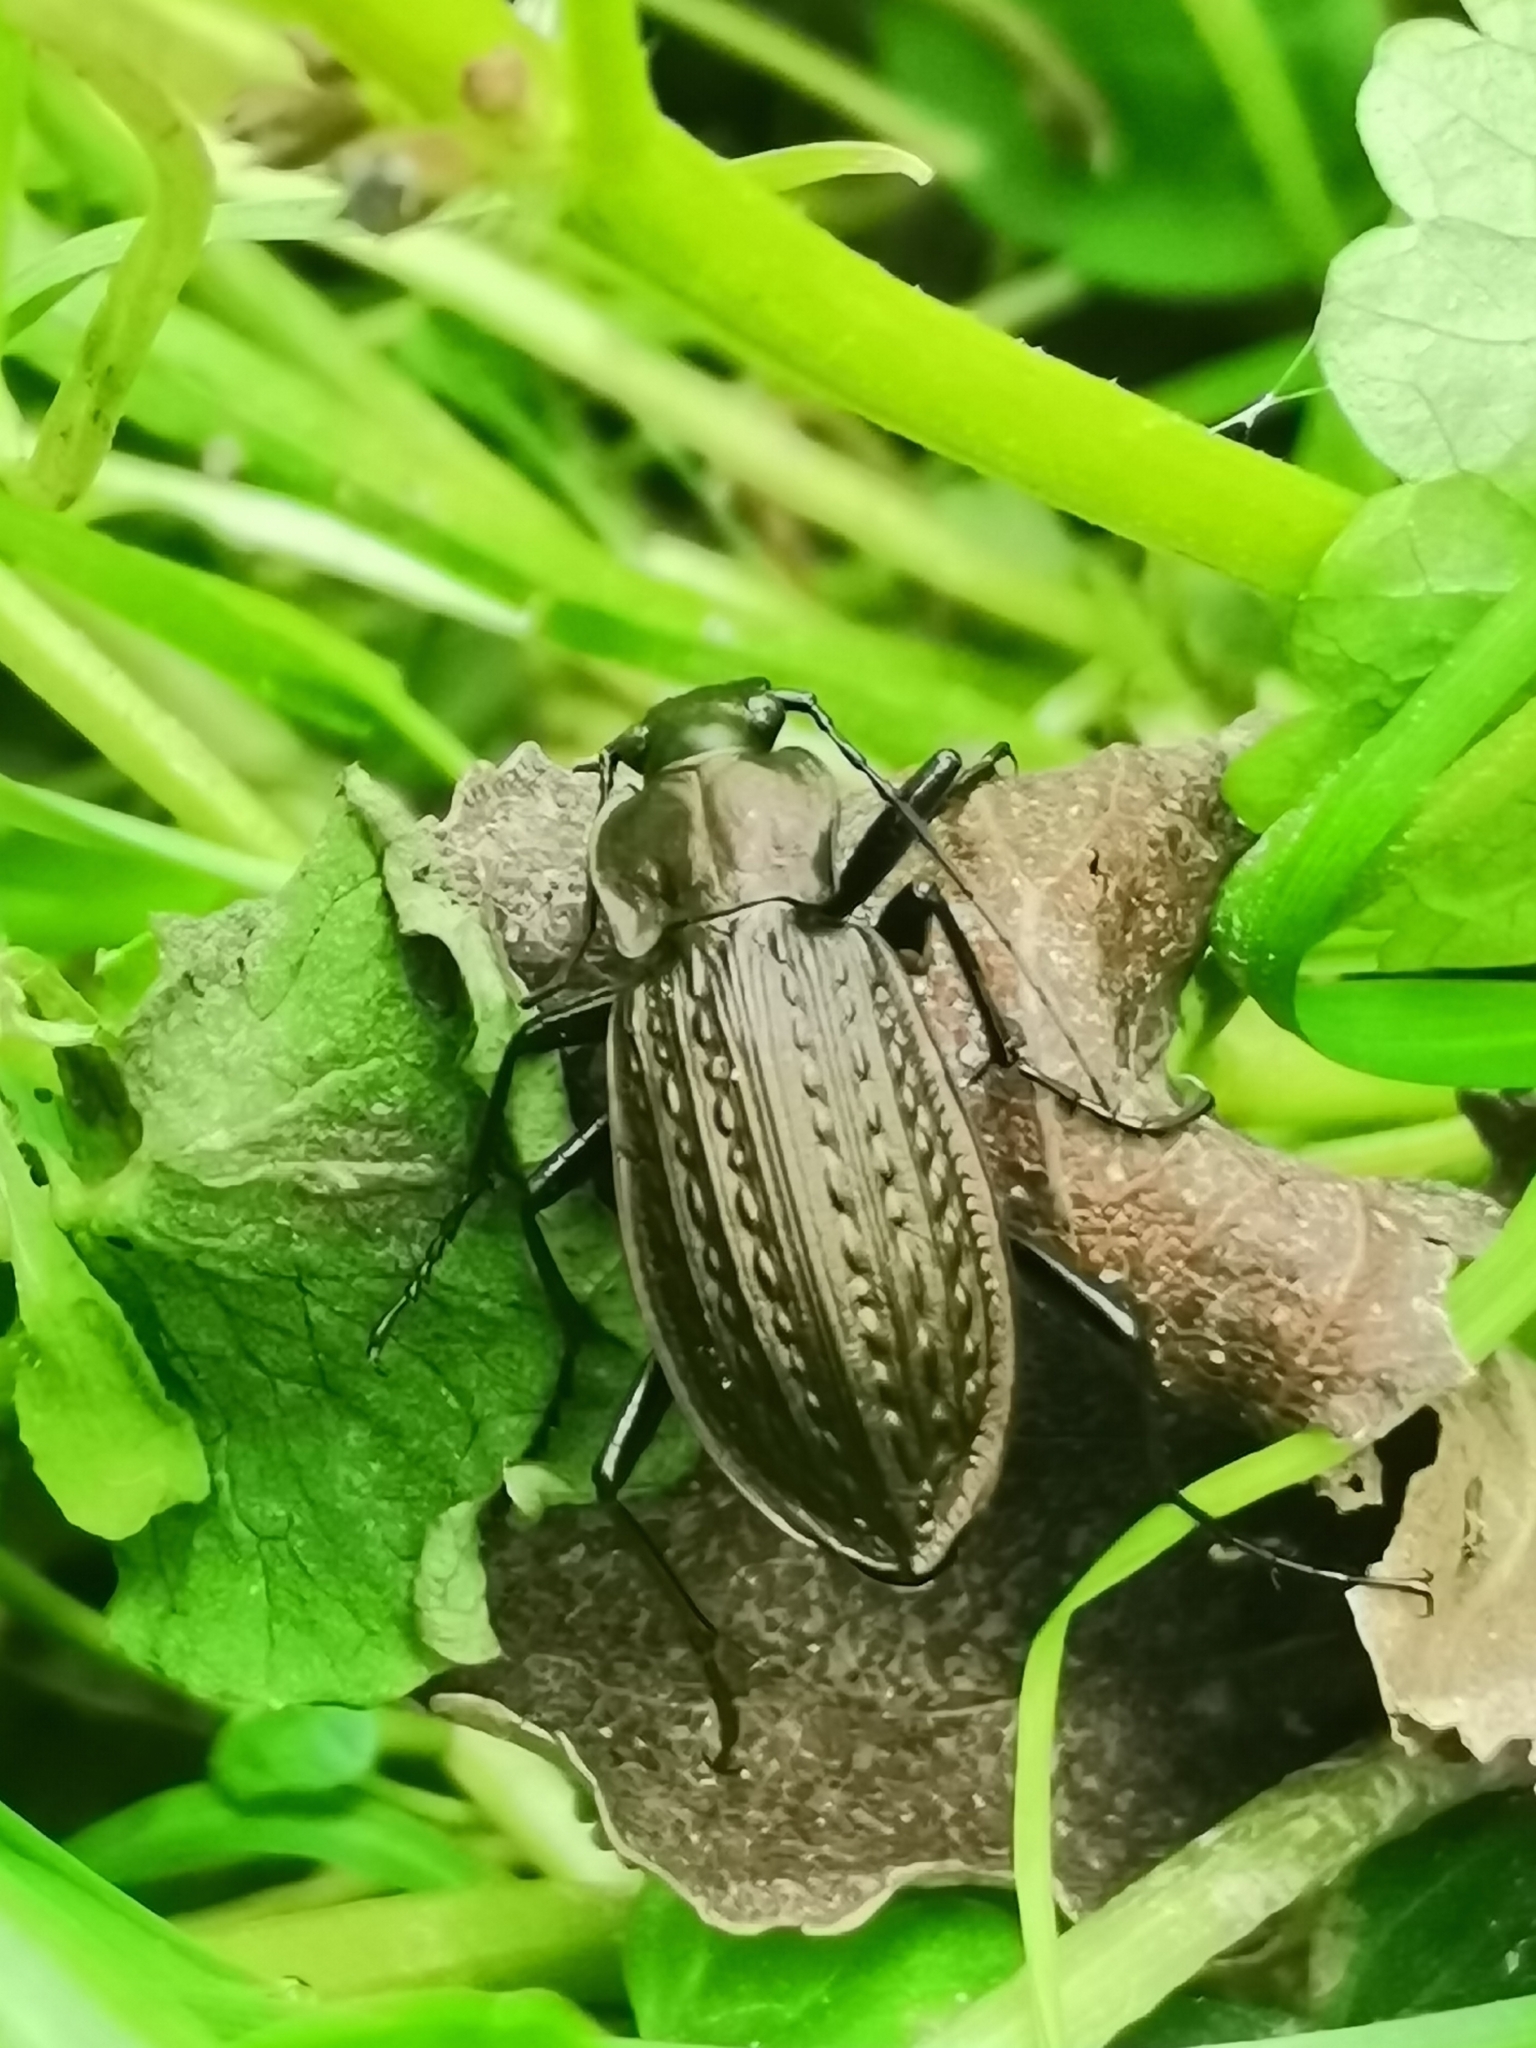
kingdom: Animalia
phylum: Arthropoda
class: Insecta
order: Coleoptera
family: Carabidae
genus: Carabus
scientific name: Carabus granulatus
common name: Granulate ground beetle
